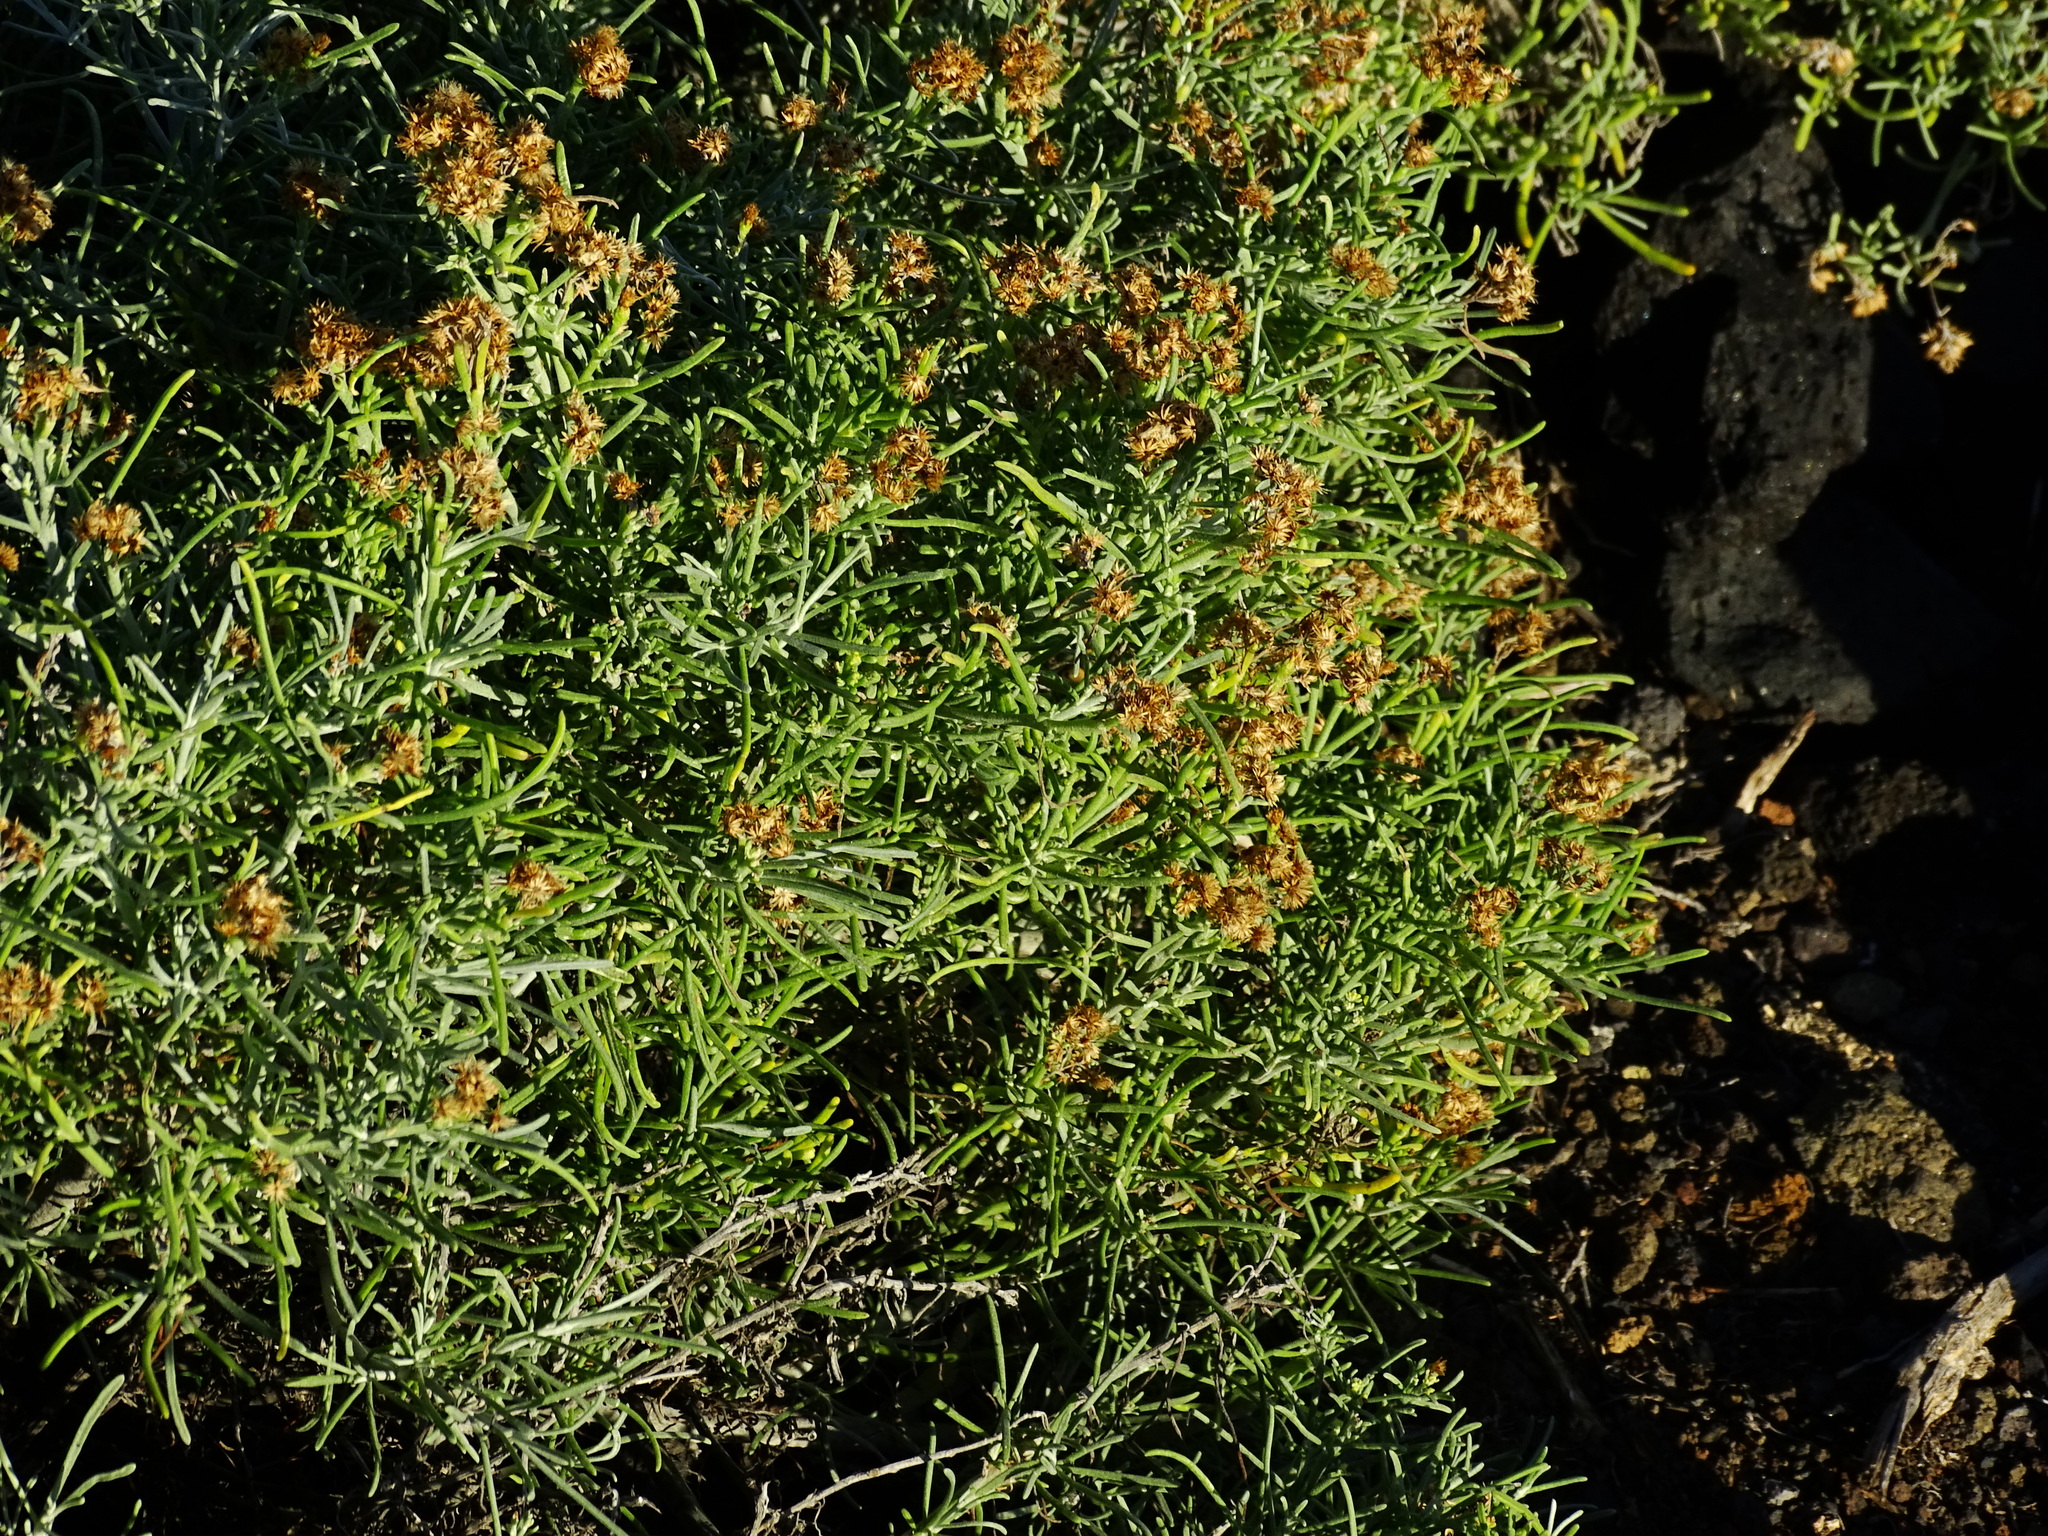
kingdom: Plantae
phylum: Tracheophyta
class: Magnoliopsida
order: Asterales
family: Asteraceae
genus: Schizogyne
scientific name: Schizogyne sericea
